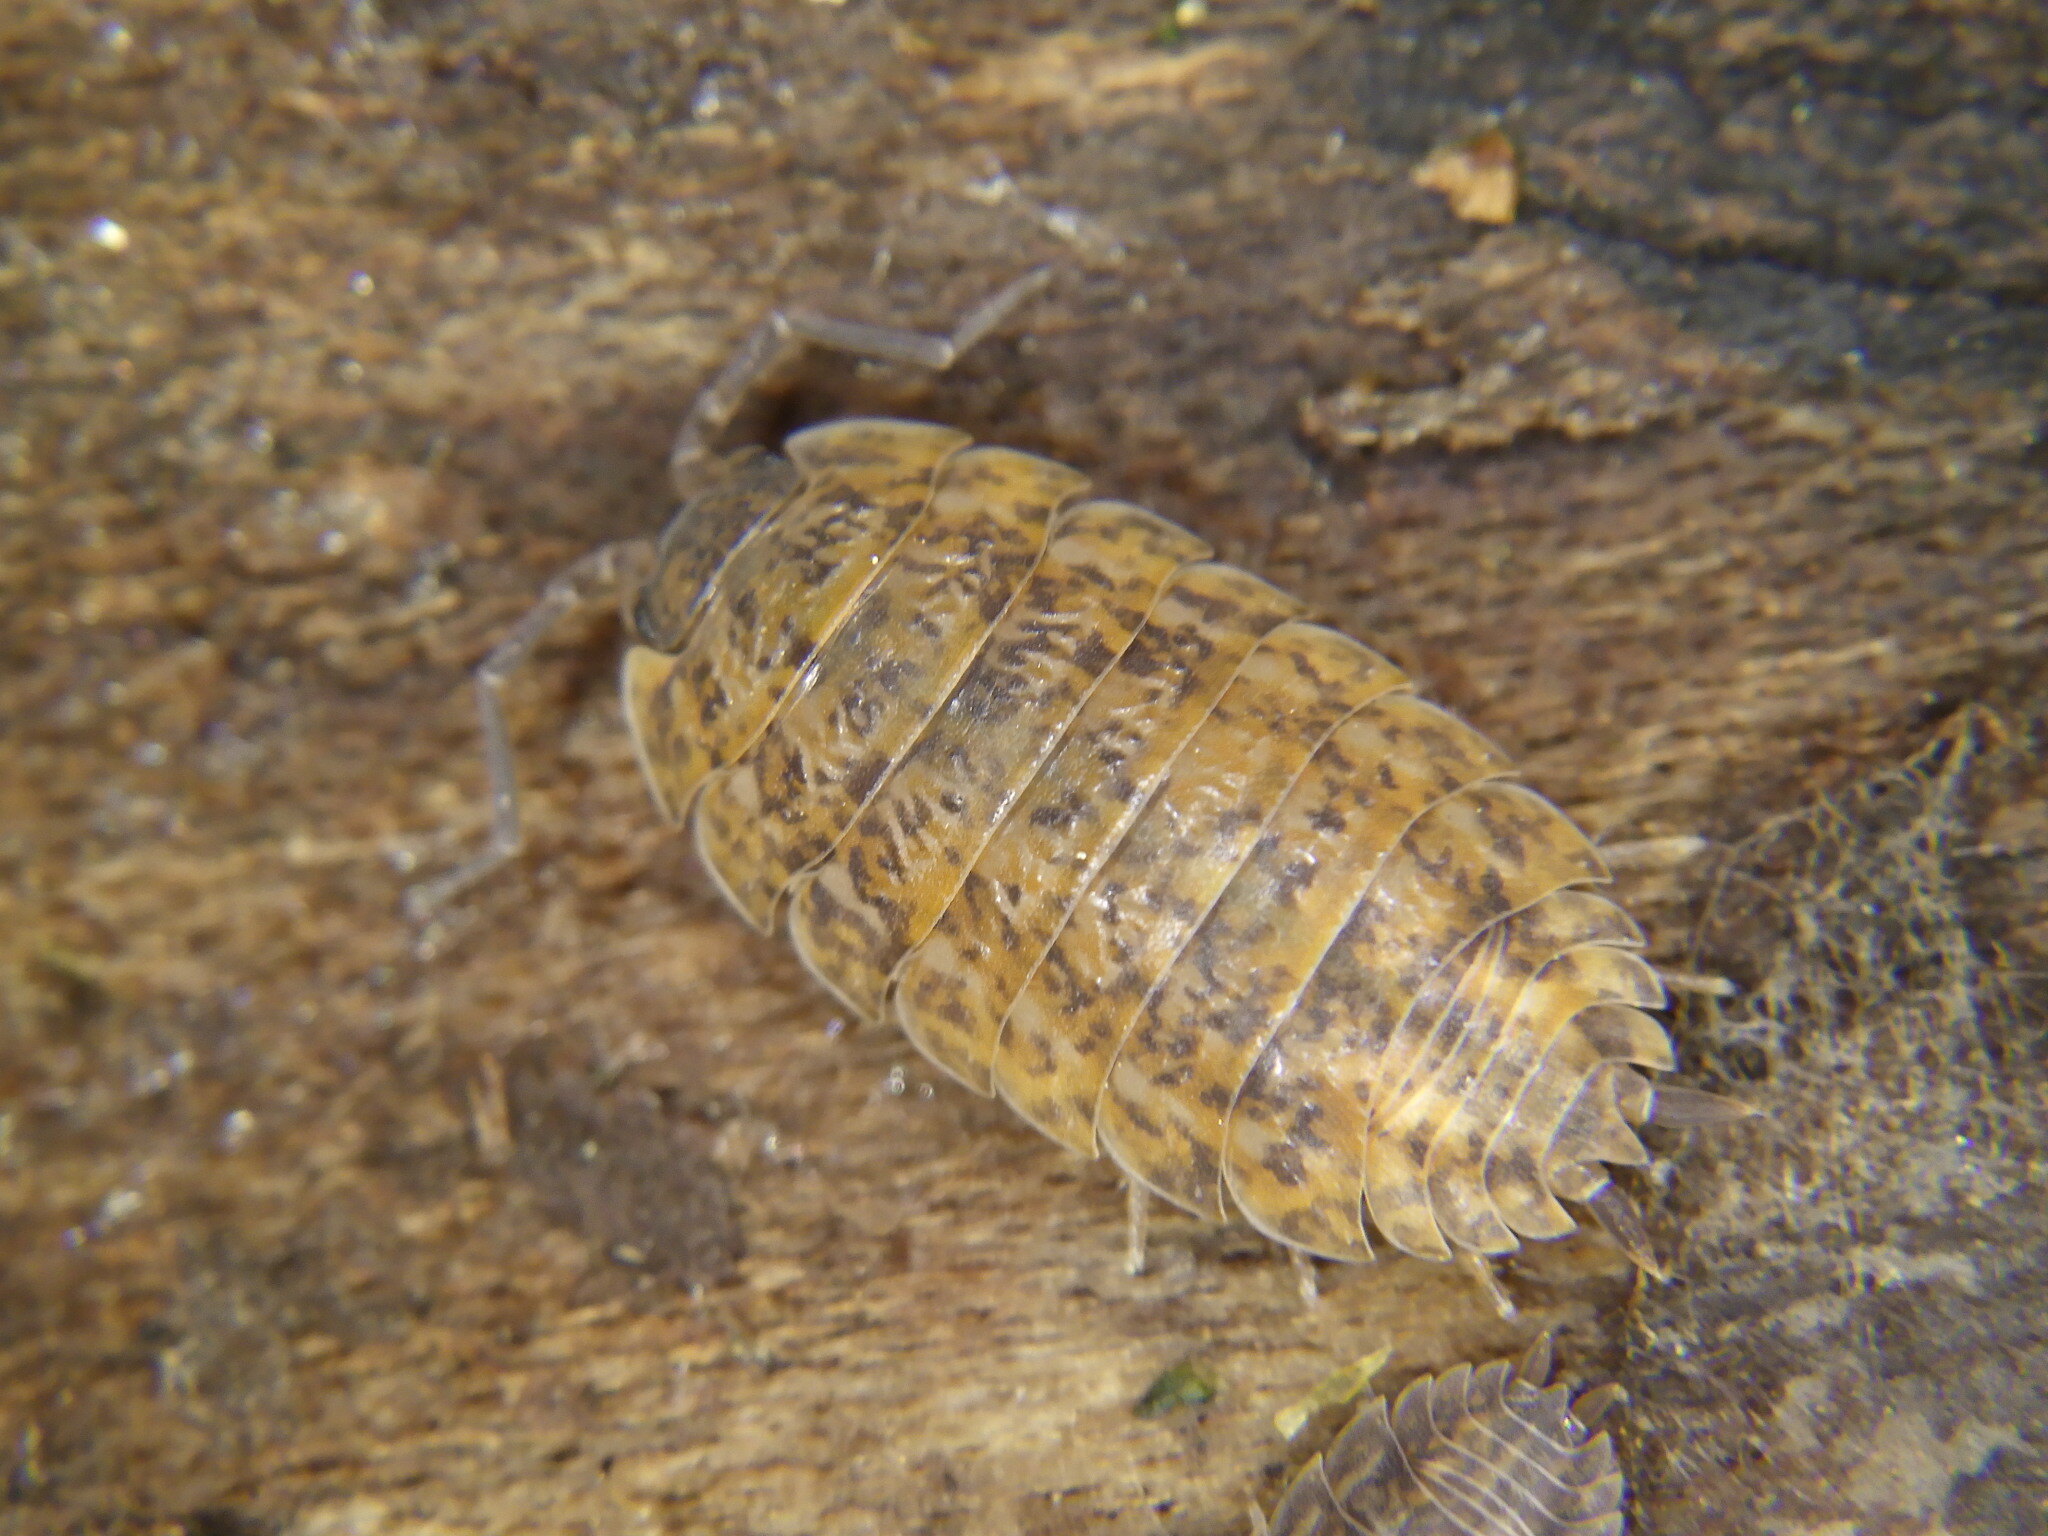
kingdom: Animalia
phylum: Arthropoda
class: Malacostraca
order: Isopoda
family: Trachelipodidae
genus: Trachelipus
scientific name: Trachelipus rathkii
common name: Isopod
